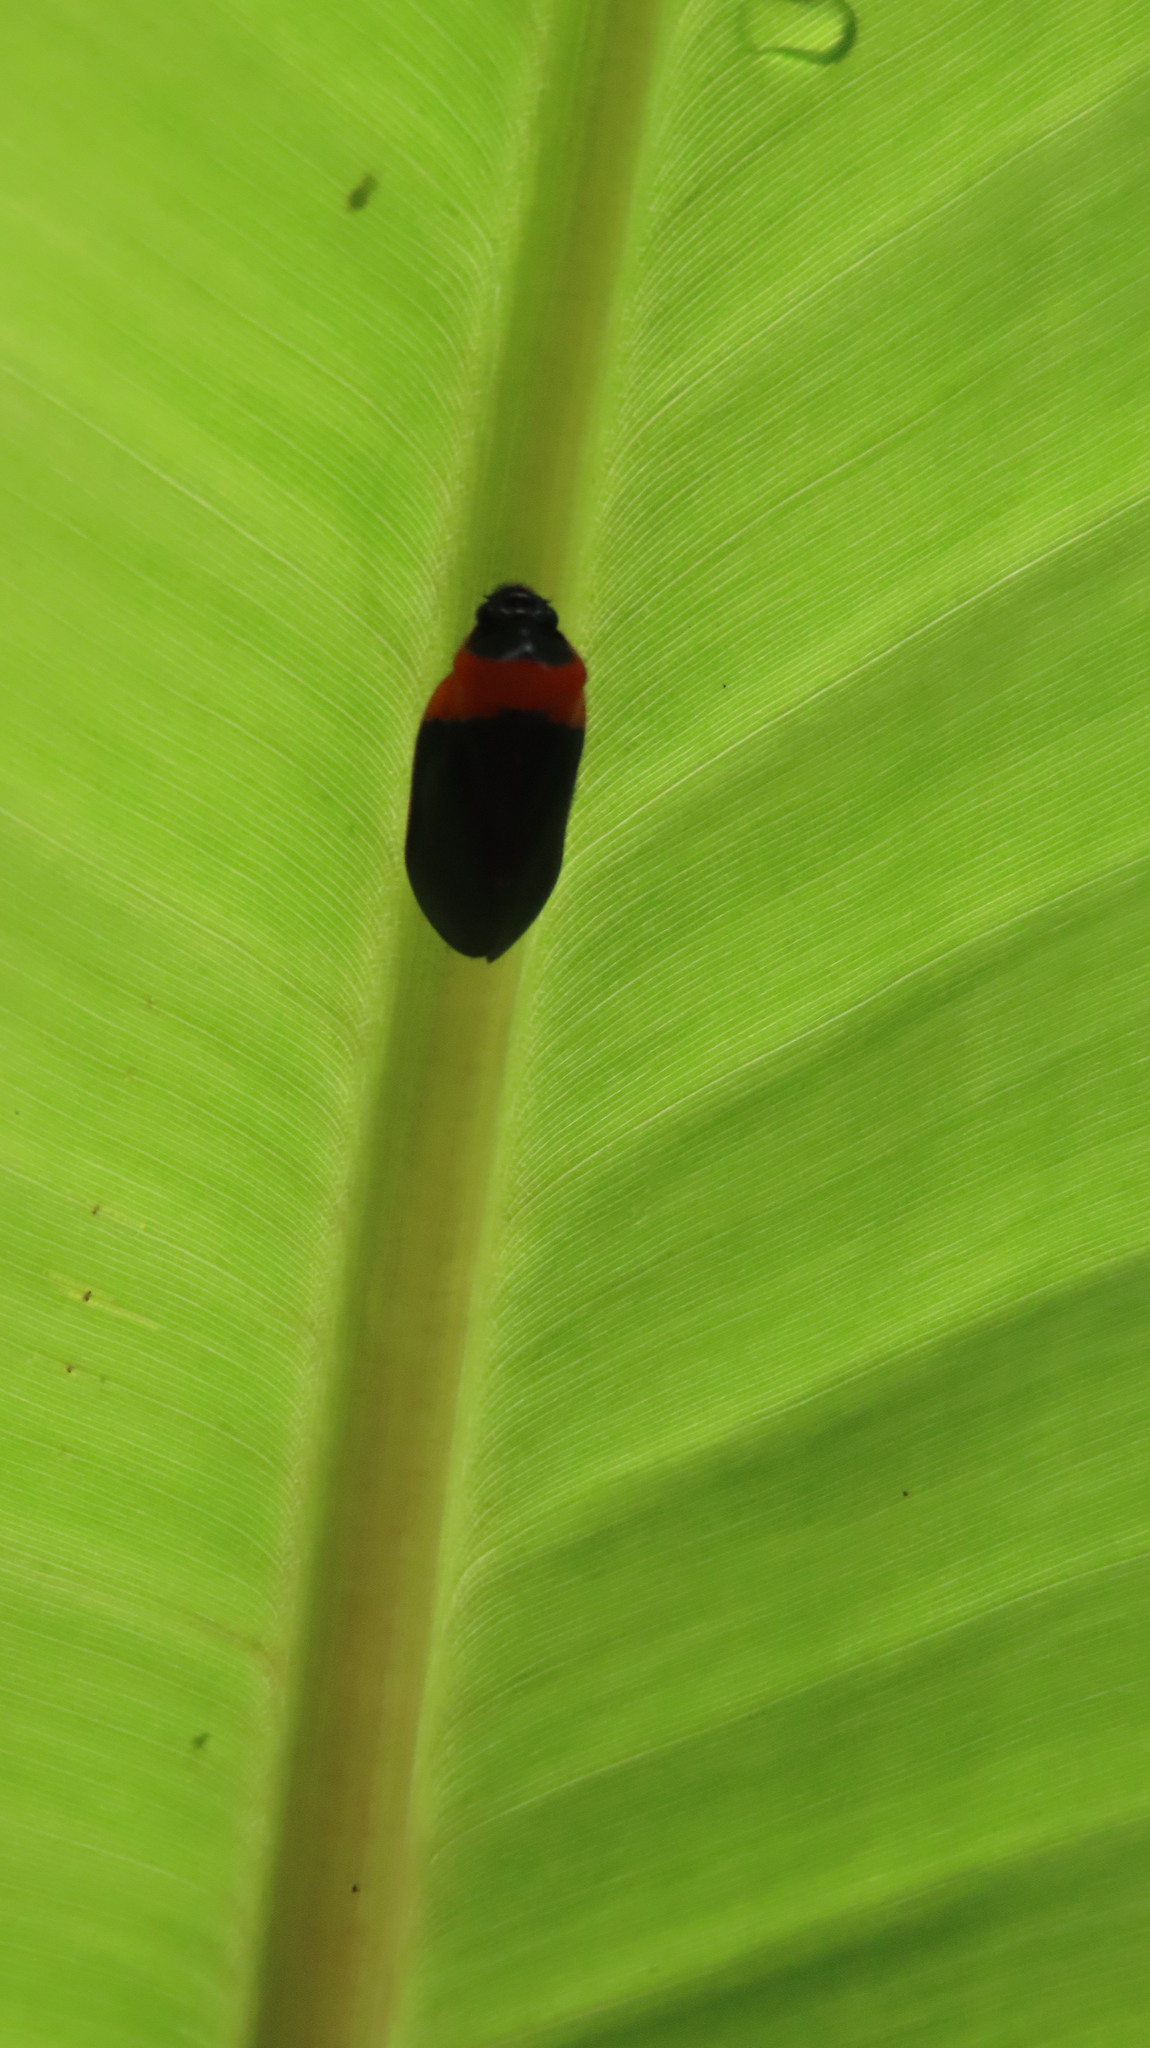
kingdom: Animalia
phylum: Arthropoda
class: Insecta
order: Hemiptera
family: Cercopidae
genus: Phymatostetha
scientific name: Phymatostetha deschampsi
